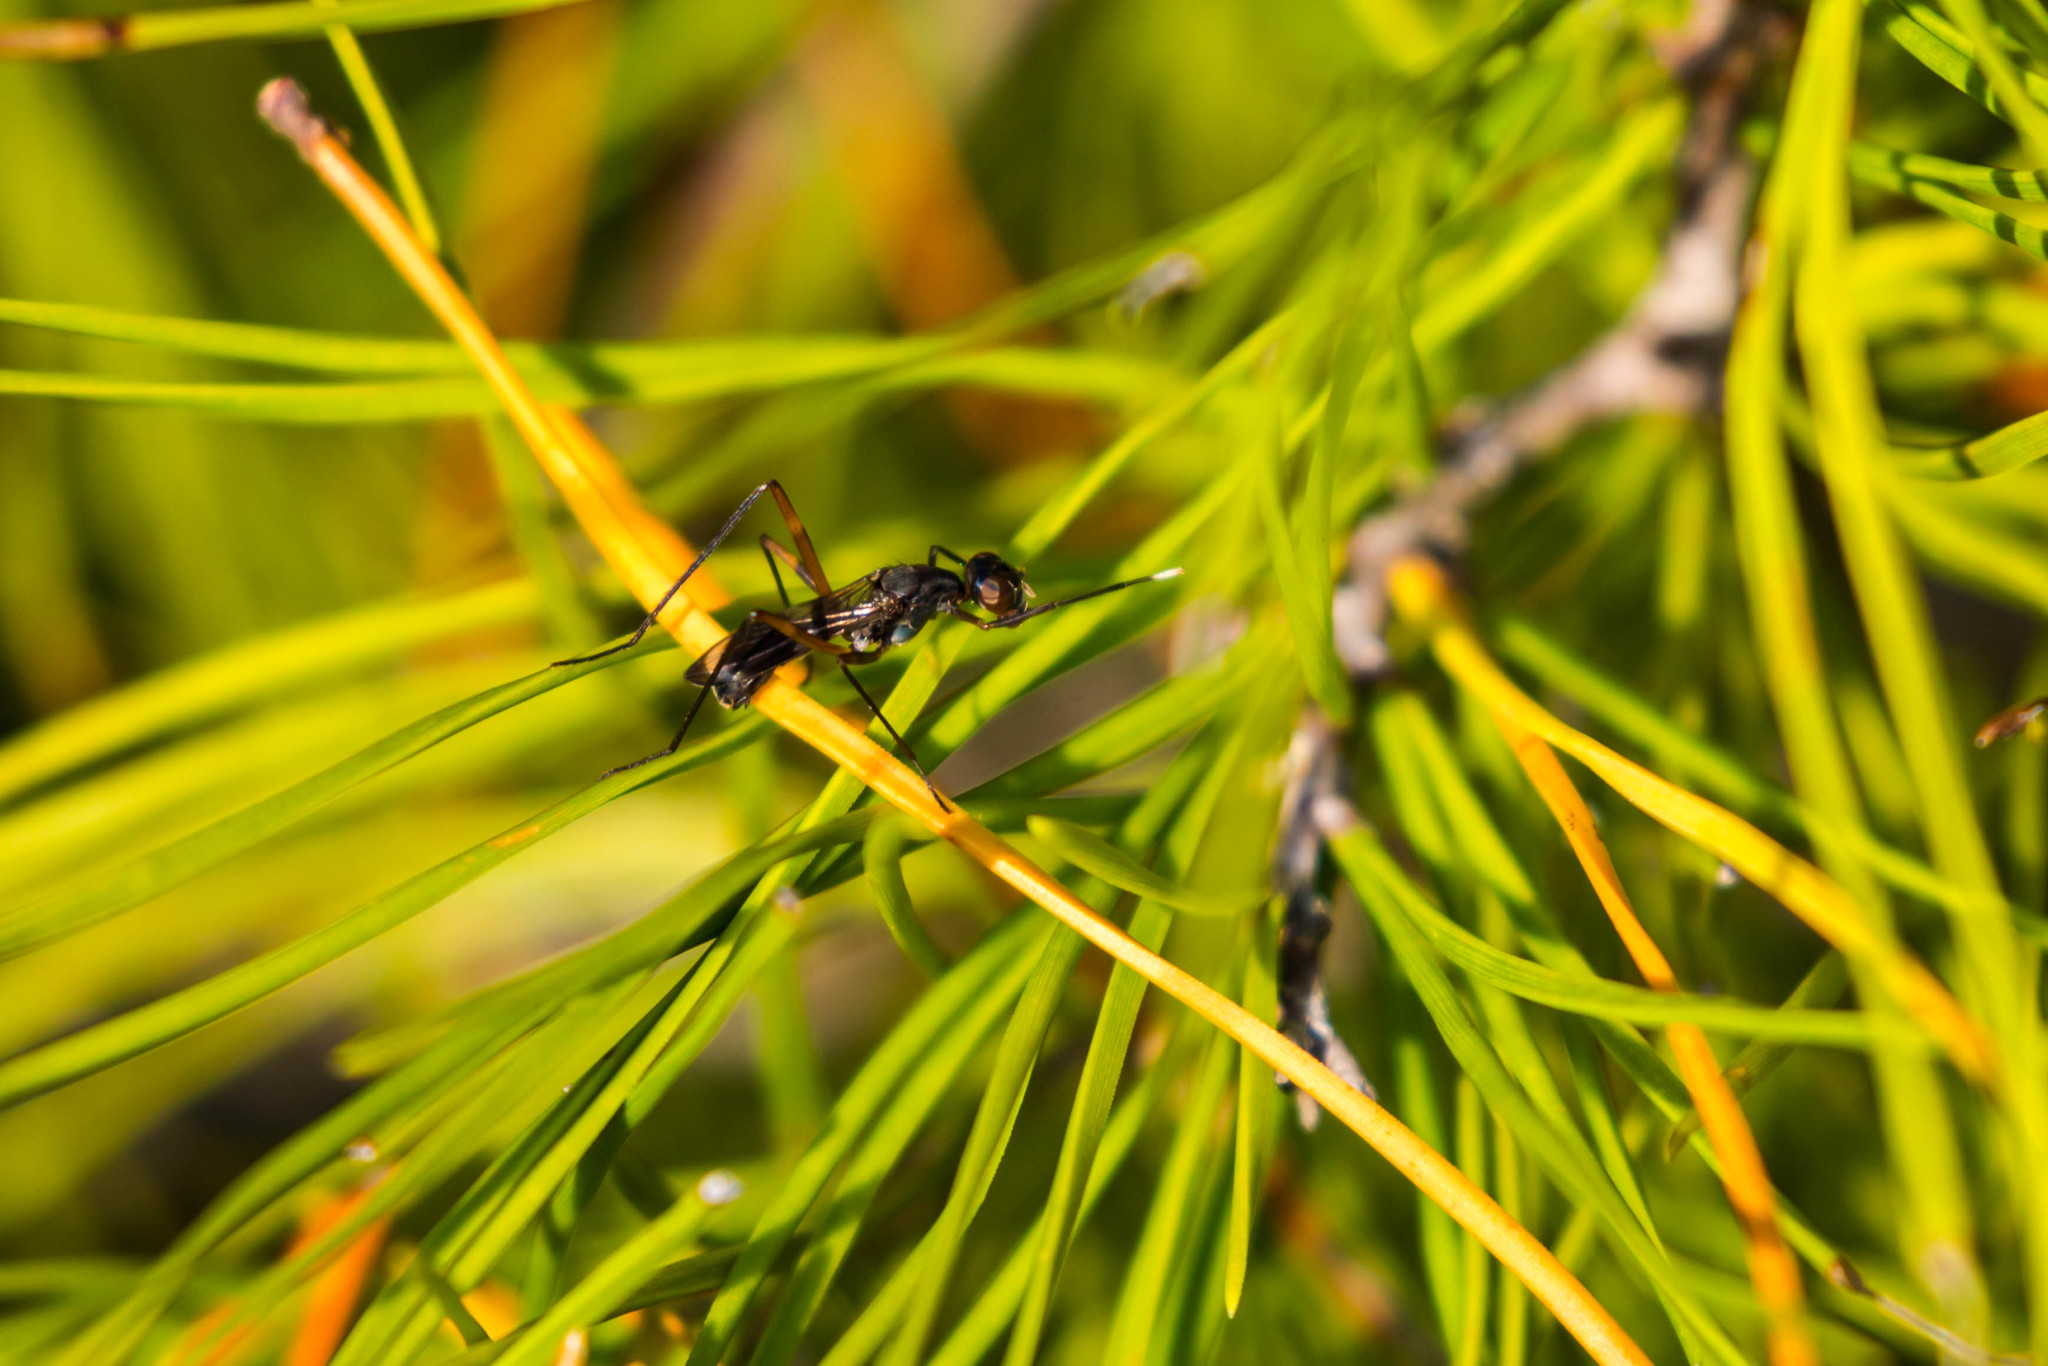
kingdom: Animalia
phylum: Arthropoda
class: Insecta
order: Diptera
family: Micropezidae
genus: Taeniaptera
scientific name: Taeniaptera trivittata
